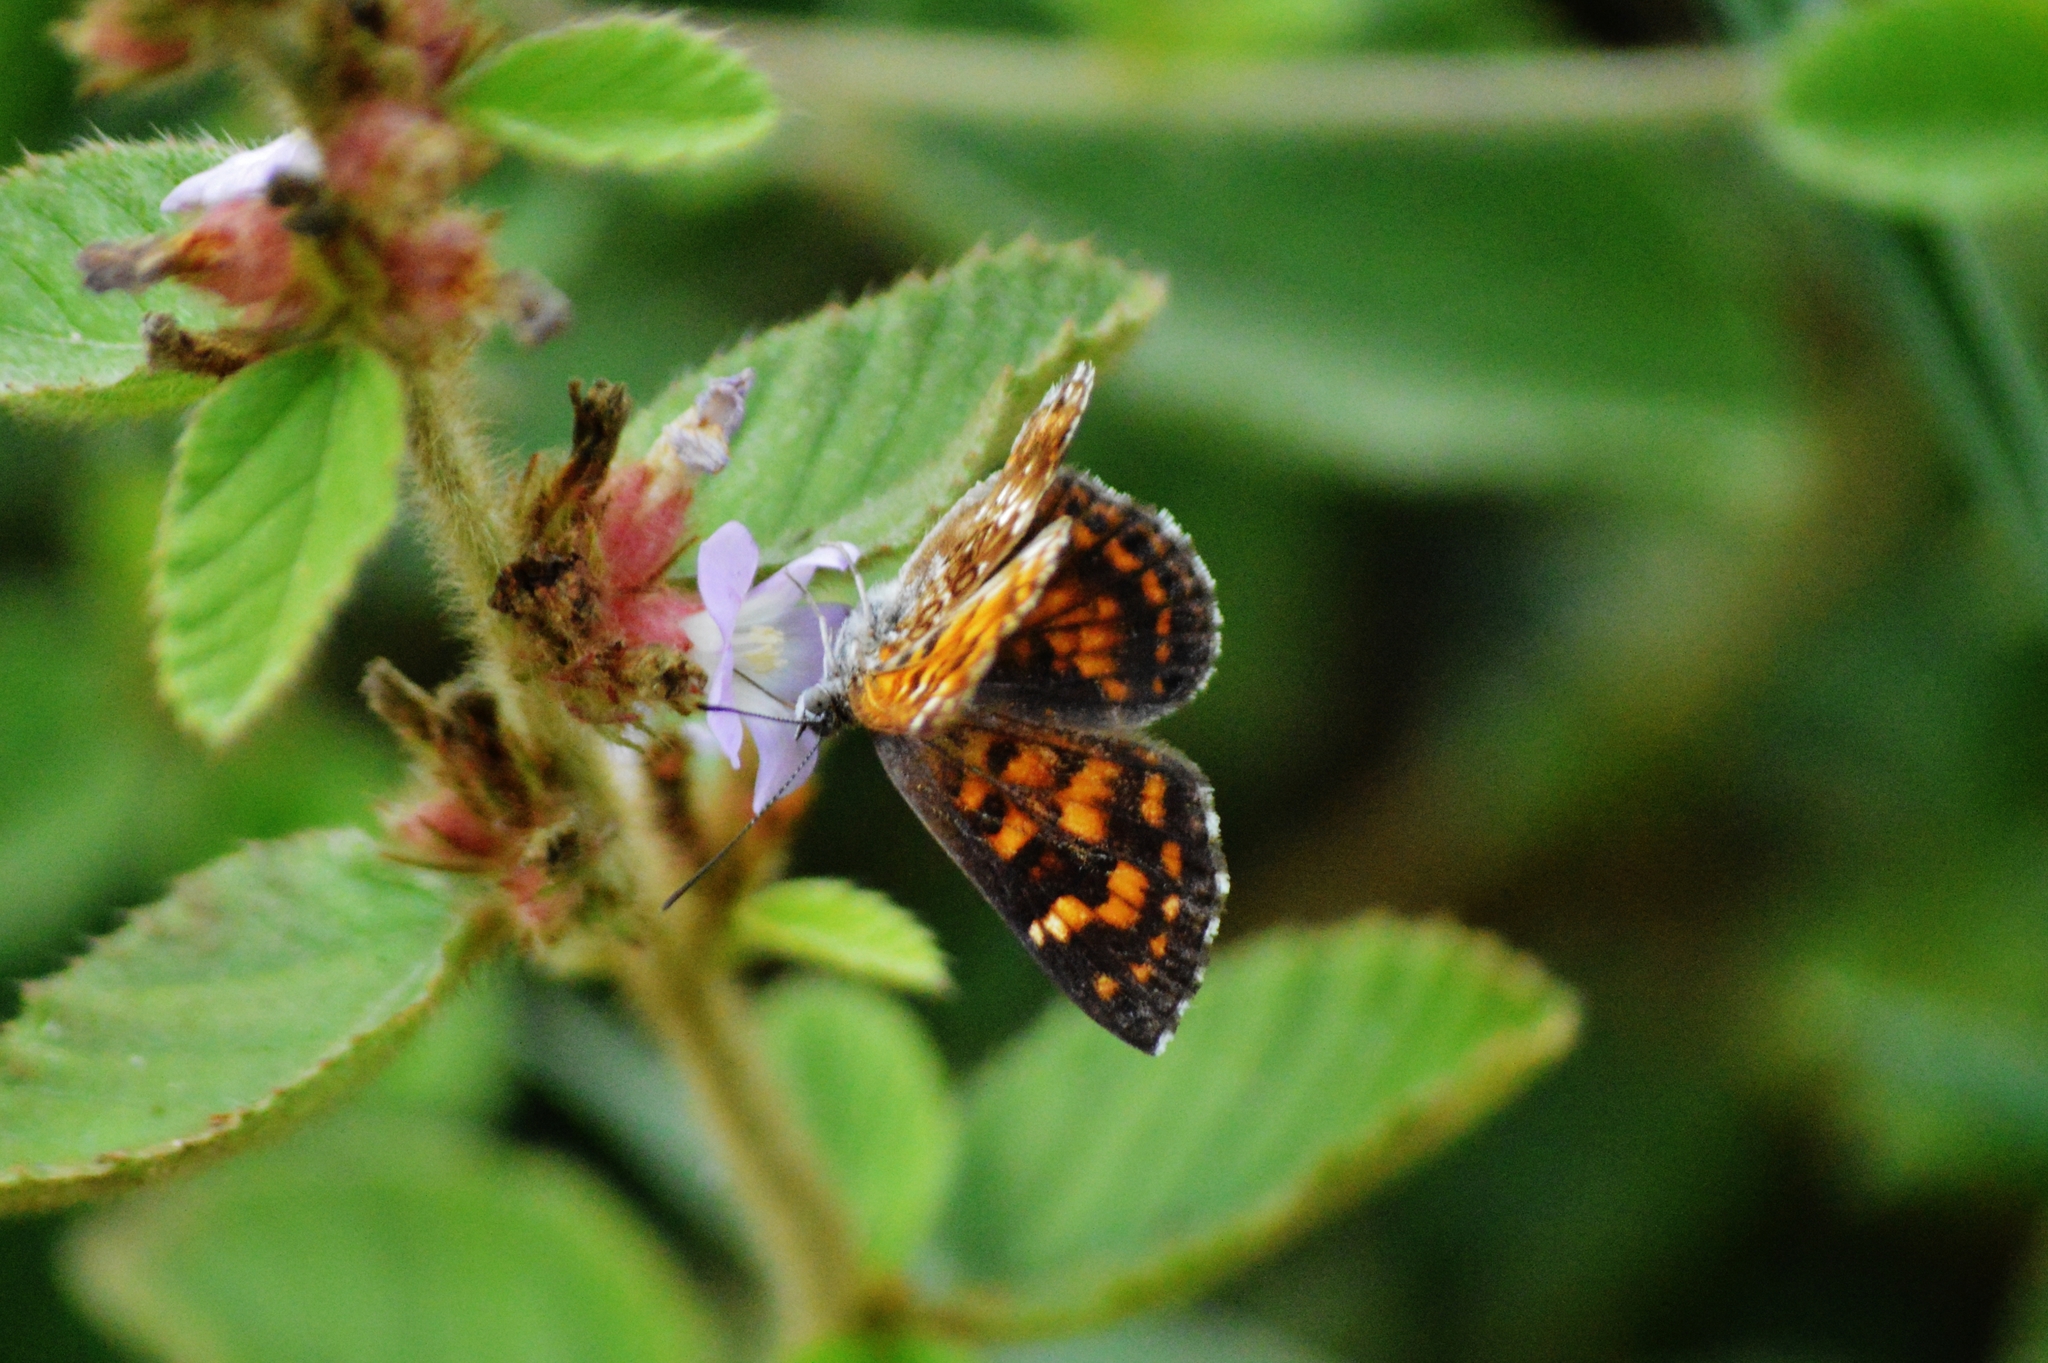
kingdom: Animalia
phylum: Arthropoda
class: Insecta
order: Lepidoptera
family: Lycaenidae
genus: Aricoris
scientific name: Aricoris epulus
